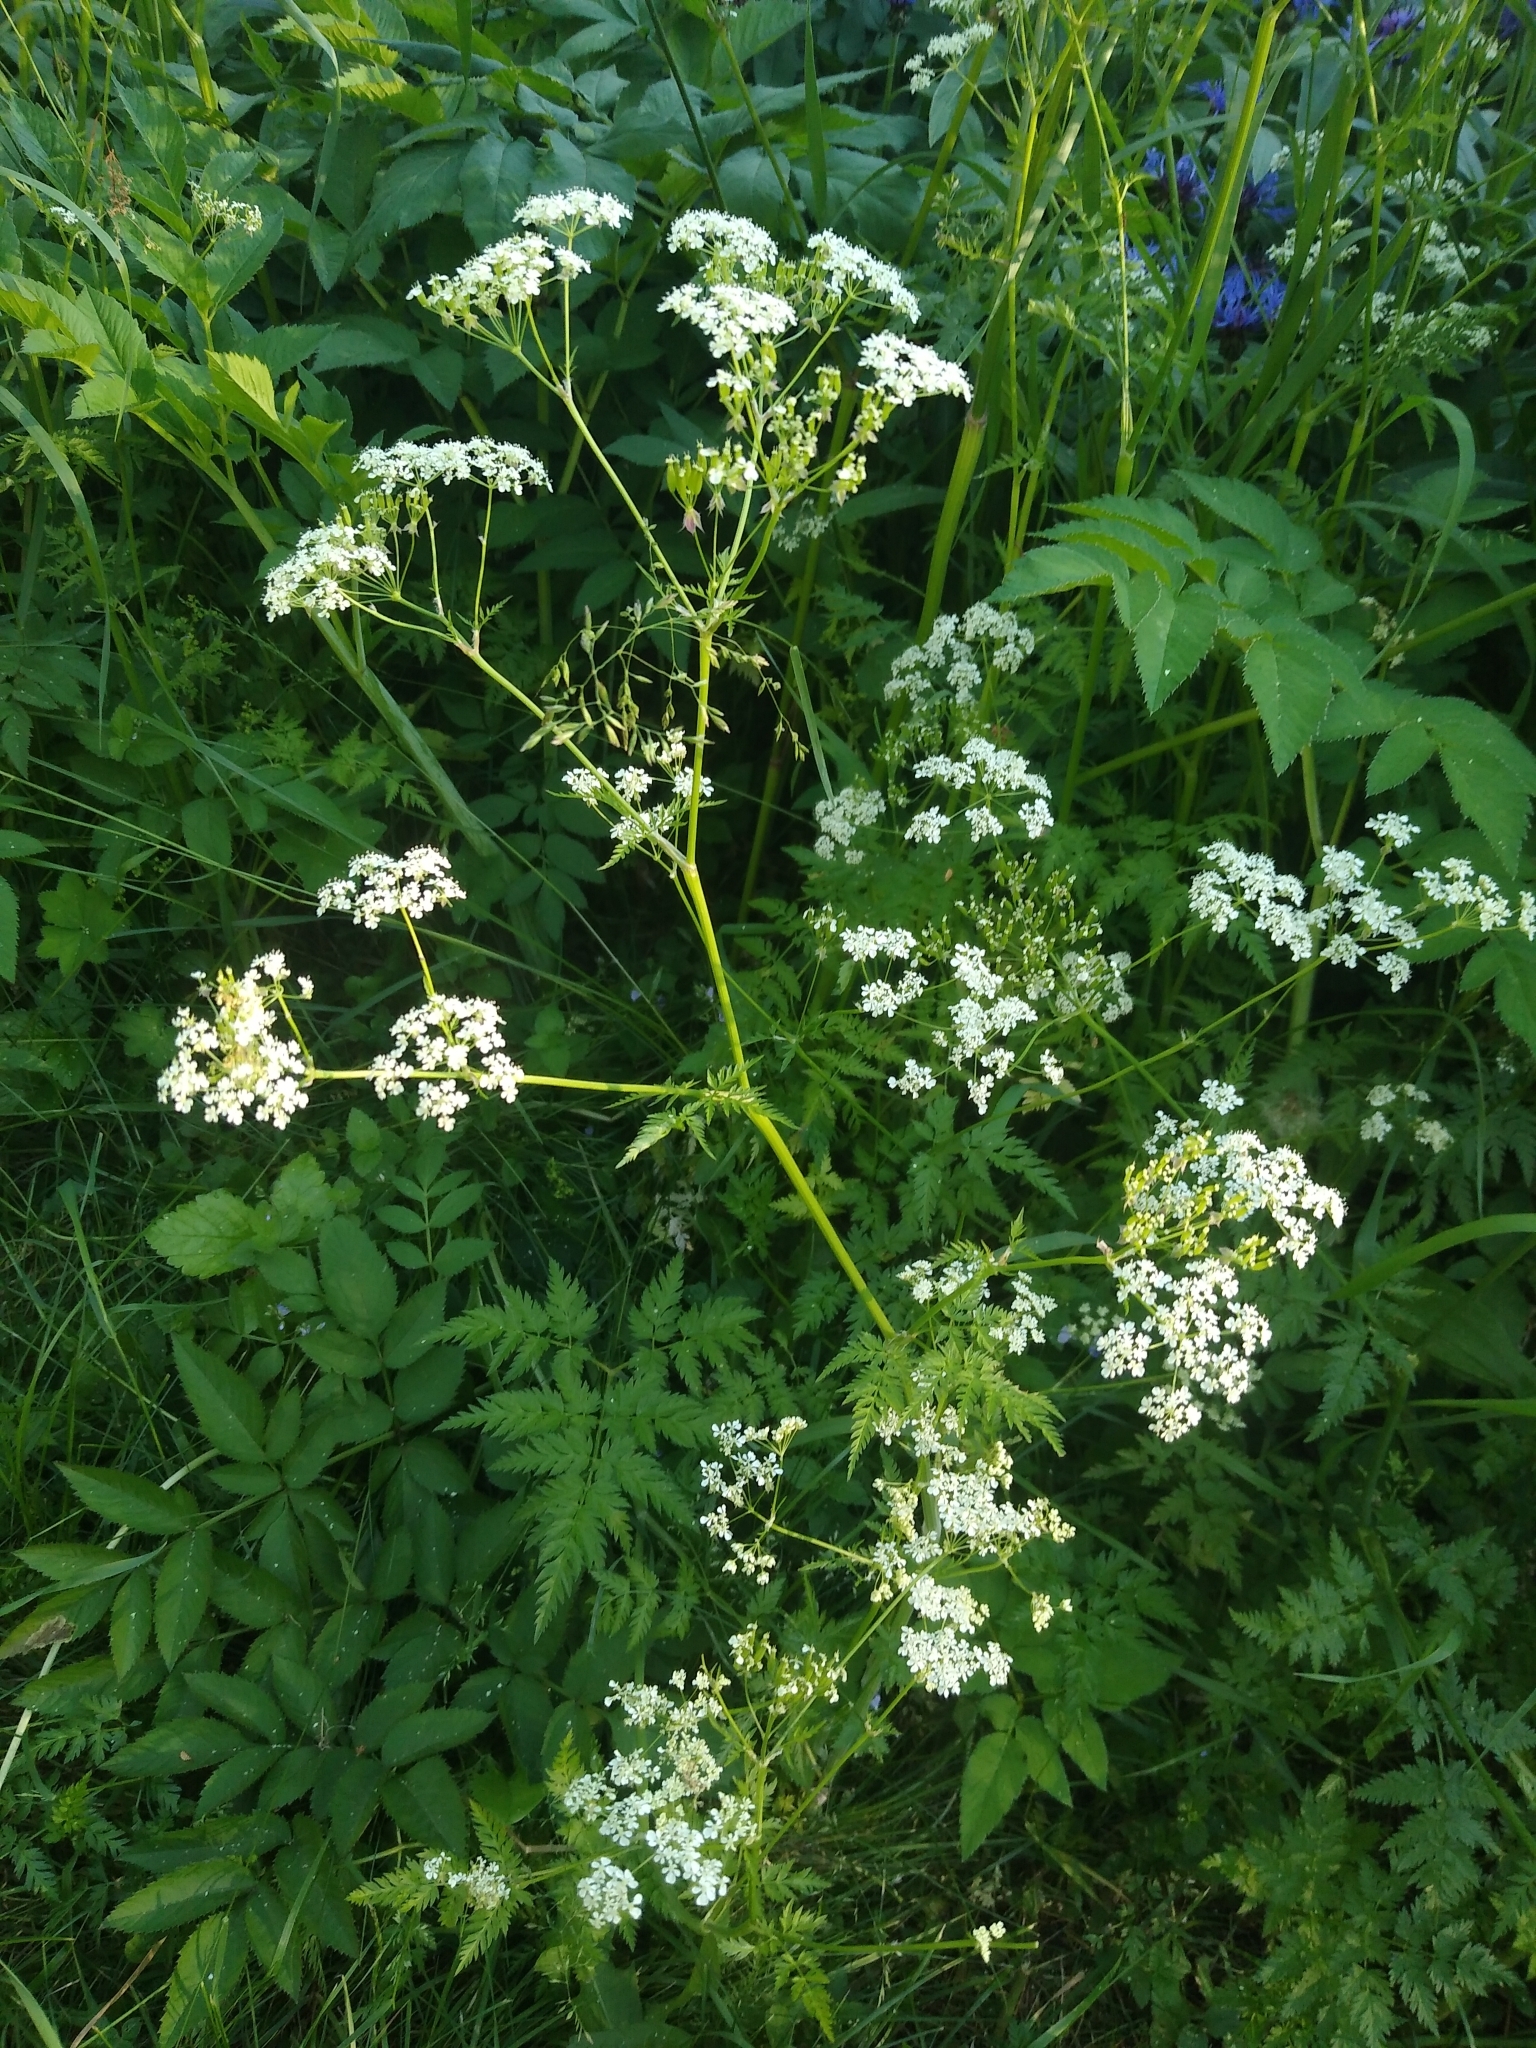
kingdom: Plantae
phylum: Tracheophyta
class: Magnoliopsida
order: Apiales
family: Apiaceae
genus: Anthriscus
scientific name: Anthriscus sylvestris
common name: Cow parsley
